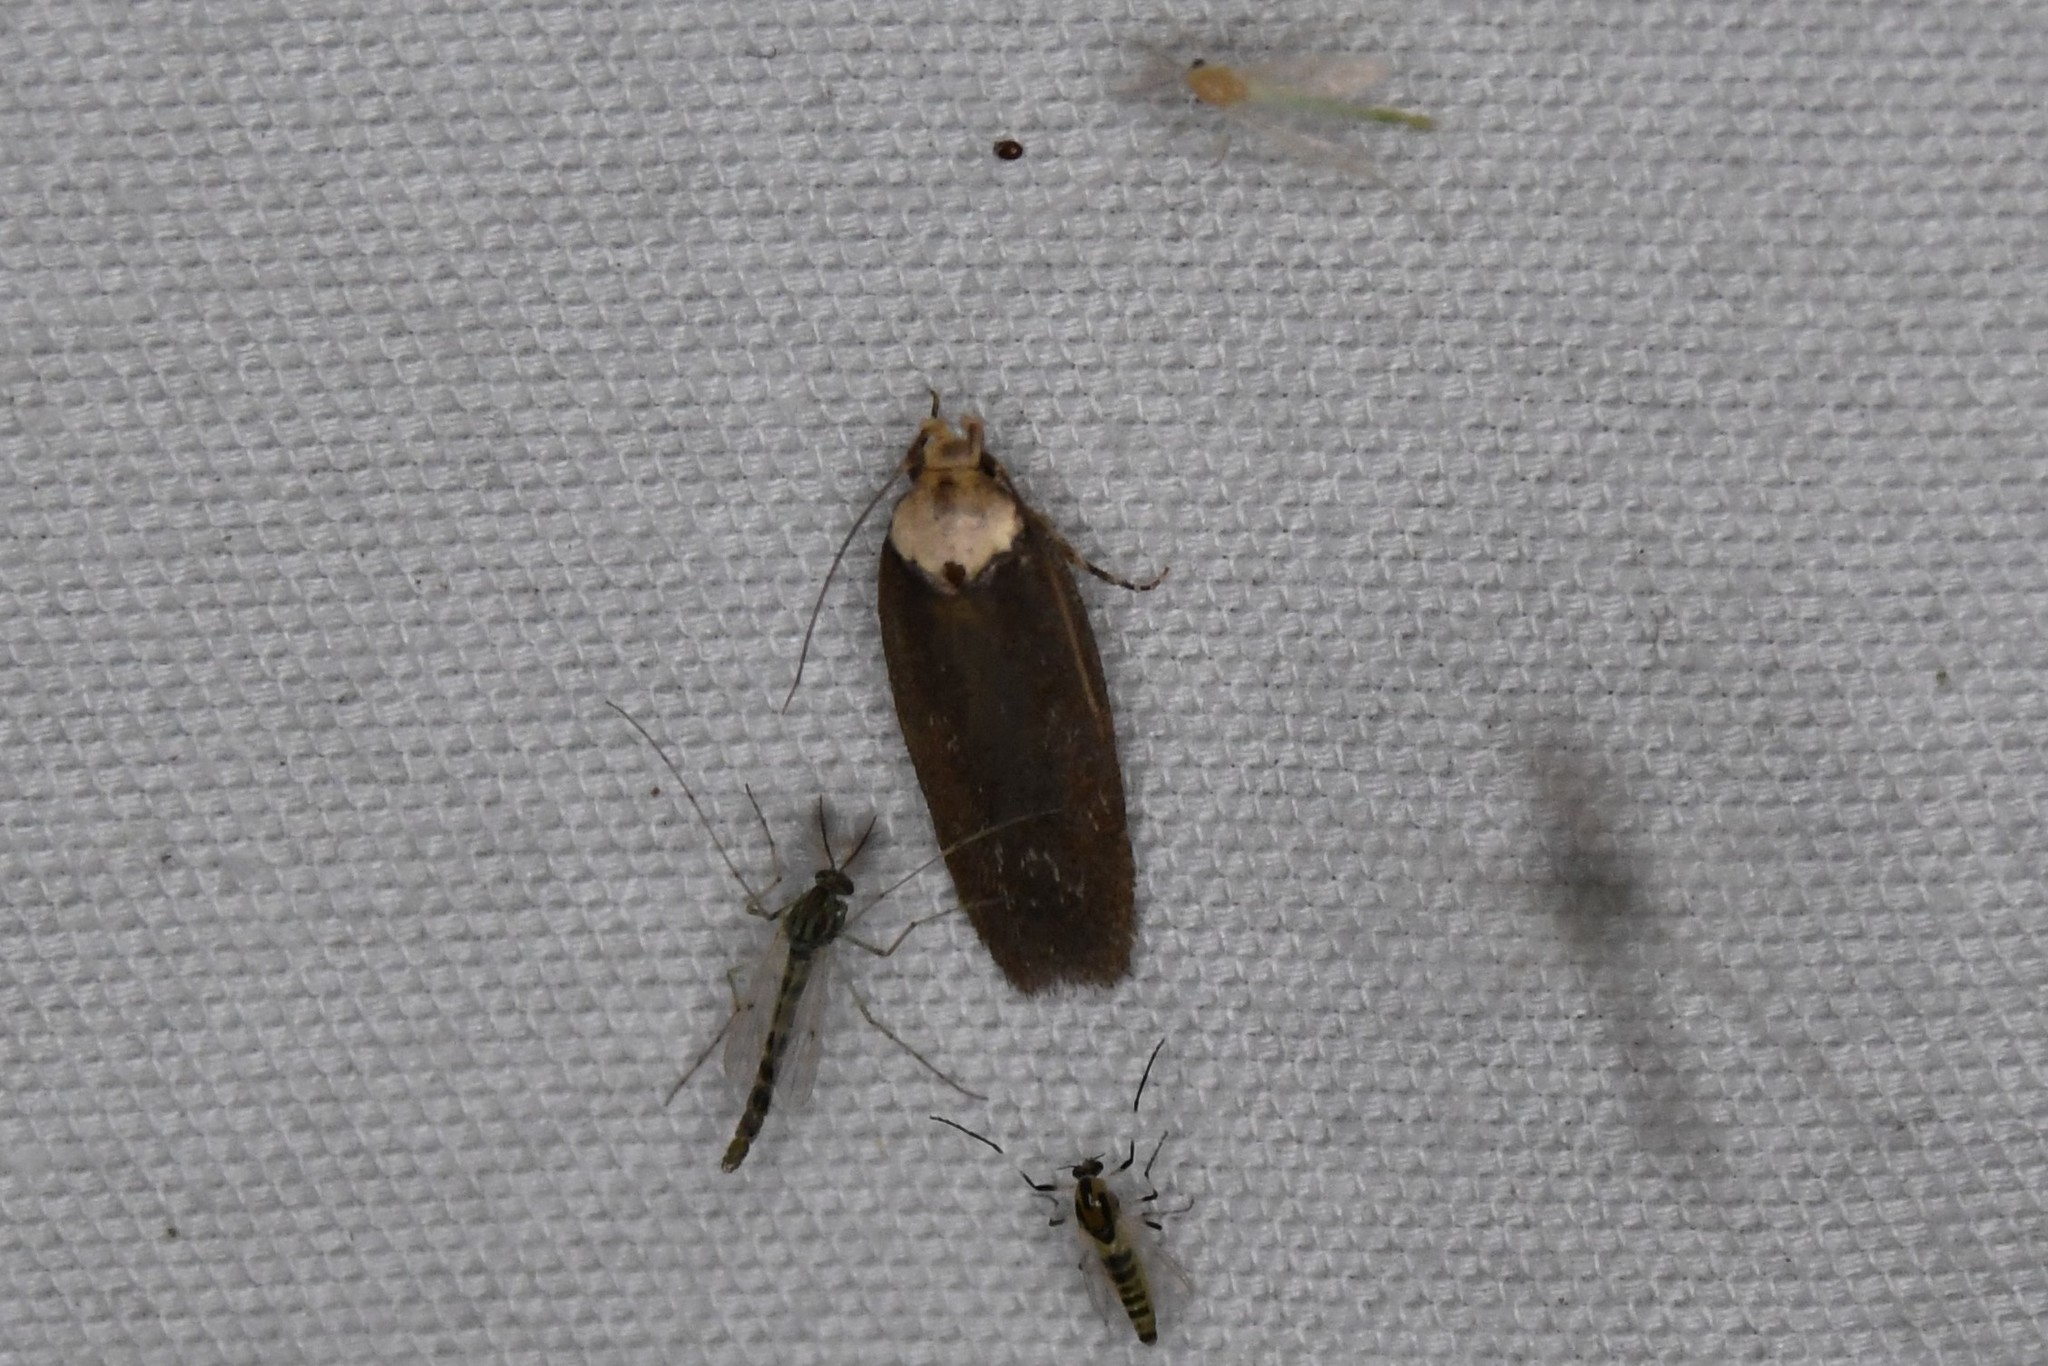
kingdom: Animalia
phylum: Arthropoda
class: Insecta
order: Lepidoptera
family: Depressariidae
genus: Depressaria
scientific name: Depressaria depressana
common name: Lost flat-body
